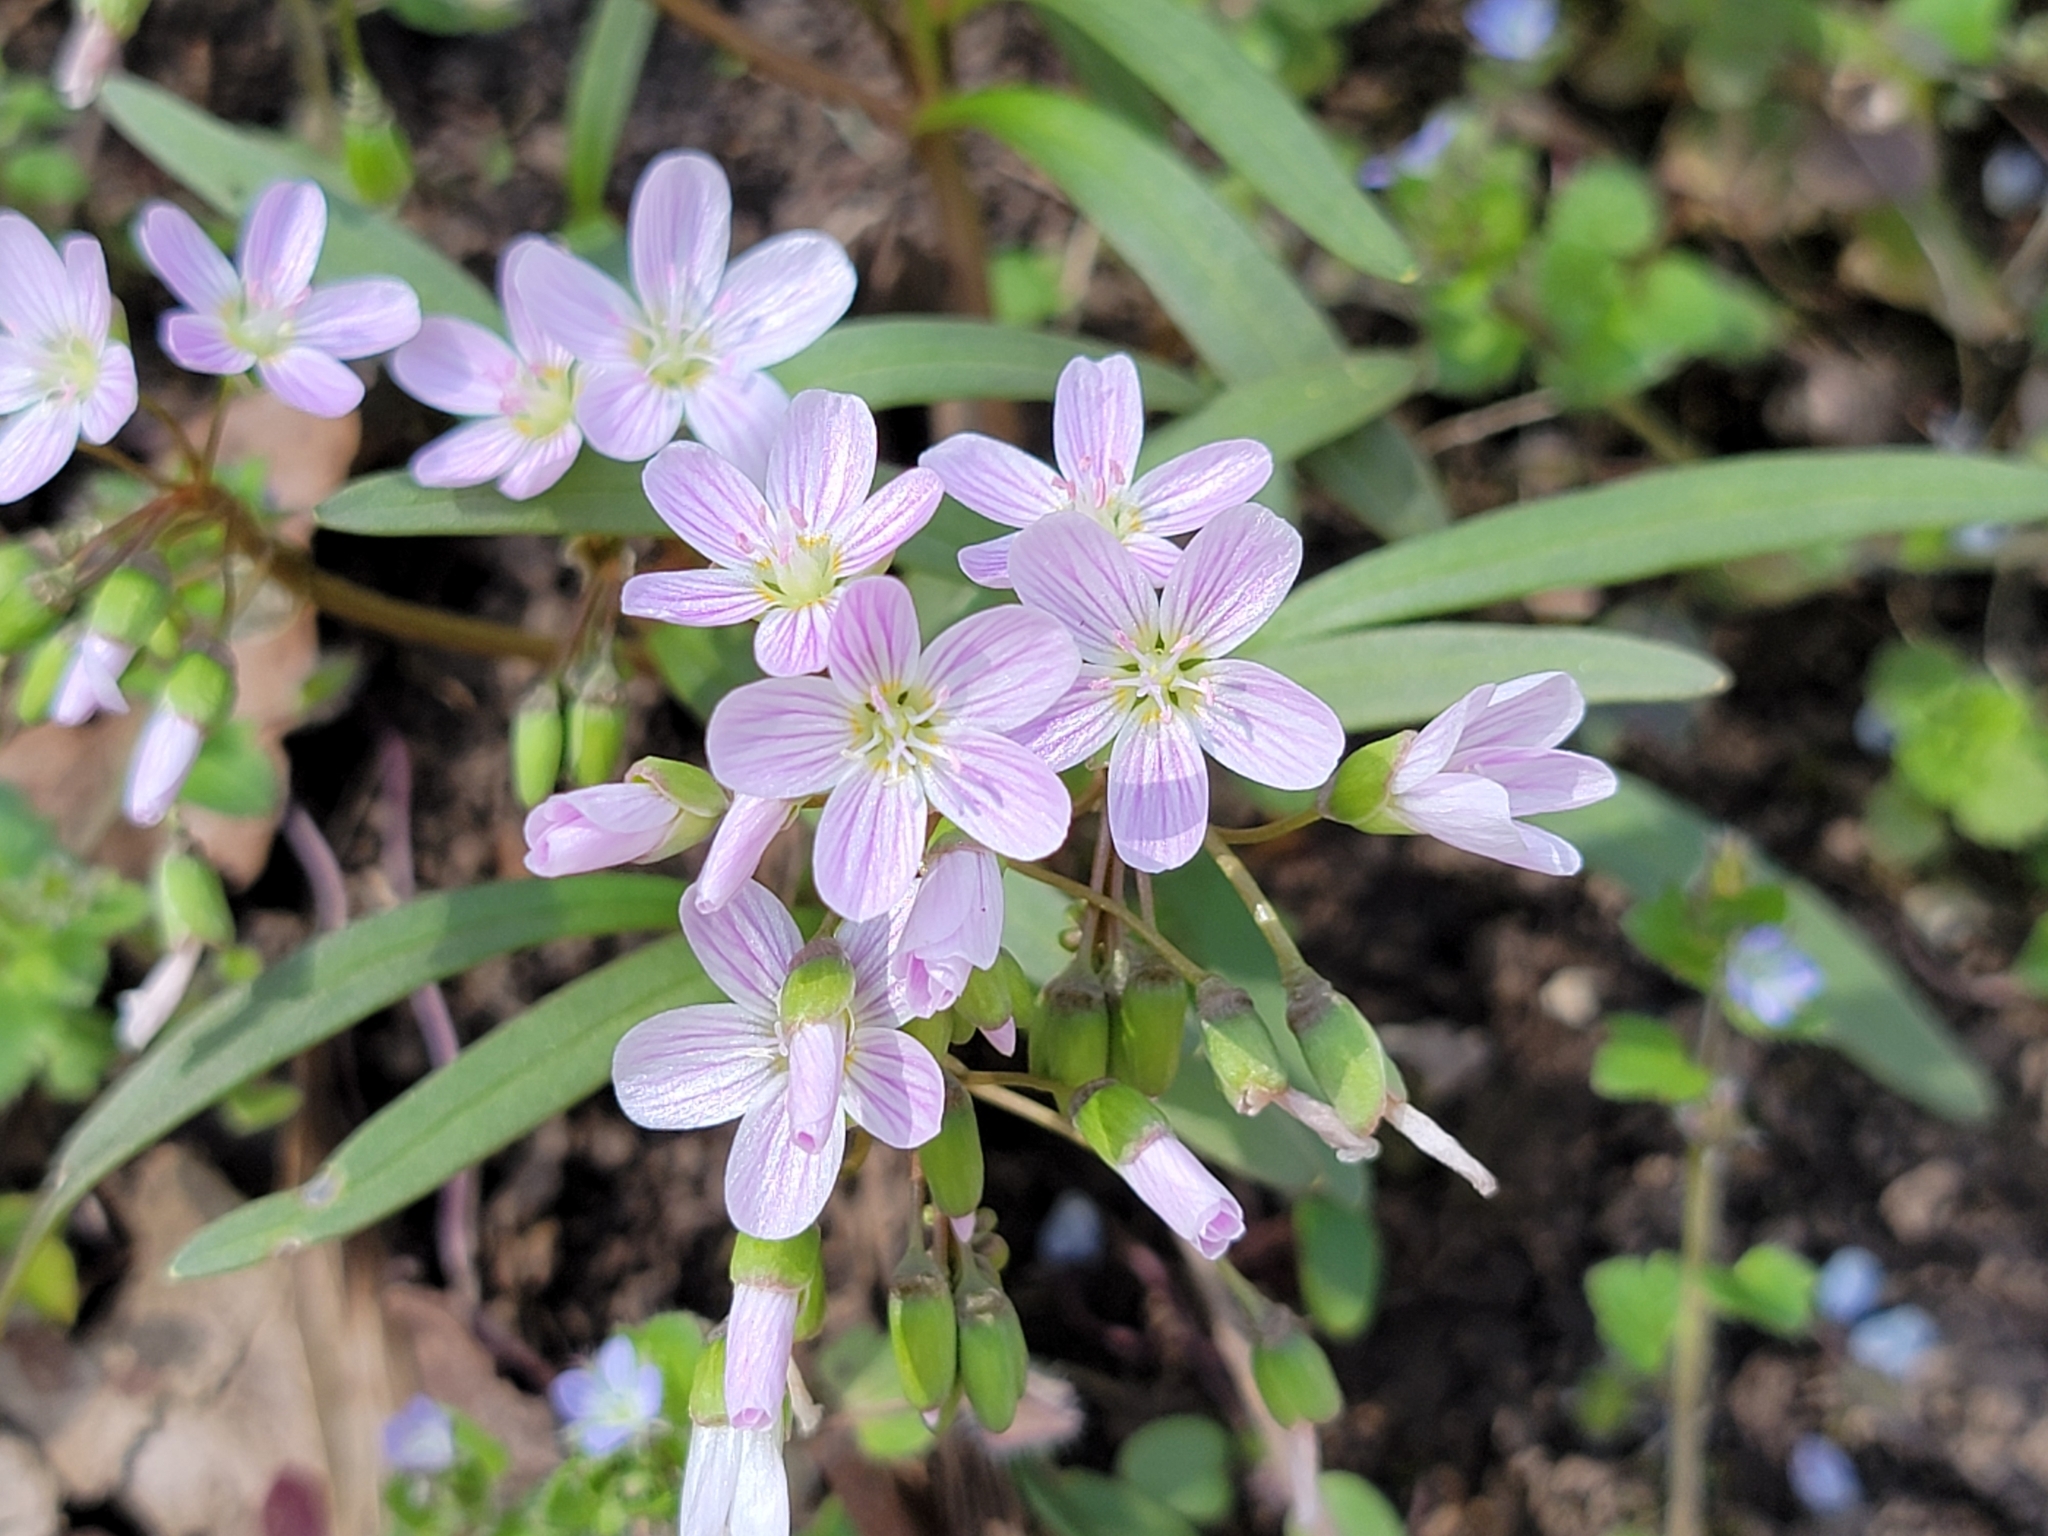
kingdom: Plantae
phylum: Tracheophyta
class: Magnoliopsida
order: Caryophyllales
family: Montiaceae
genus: Claytonia
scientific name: Claytonia virginica
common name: Virginia springbeauty
